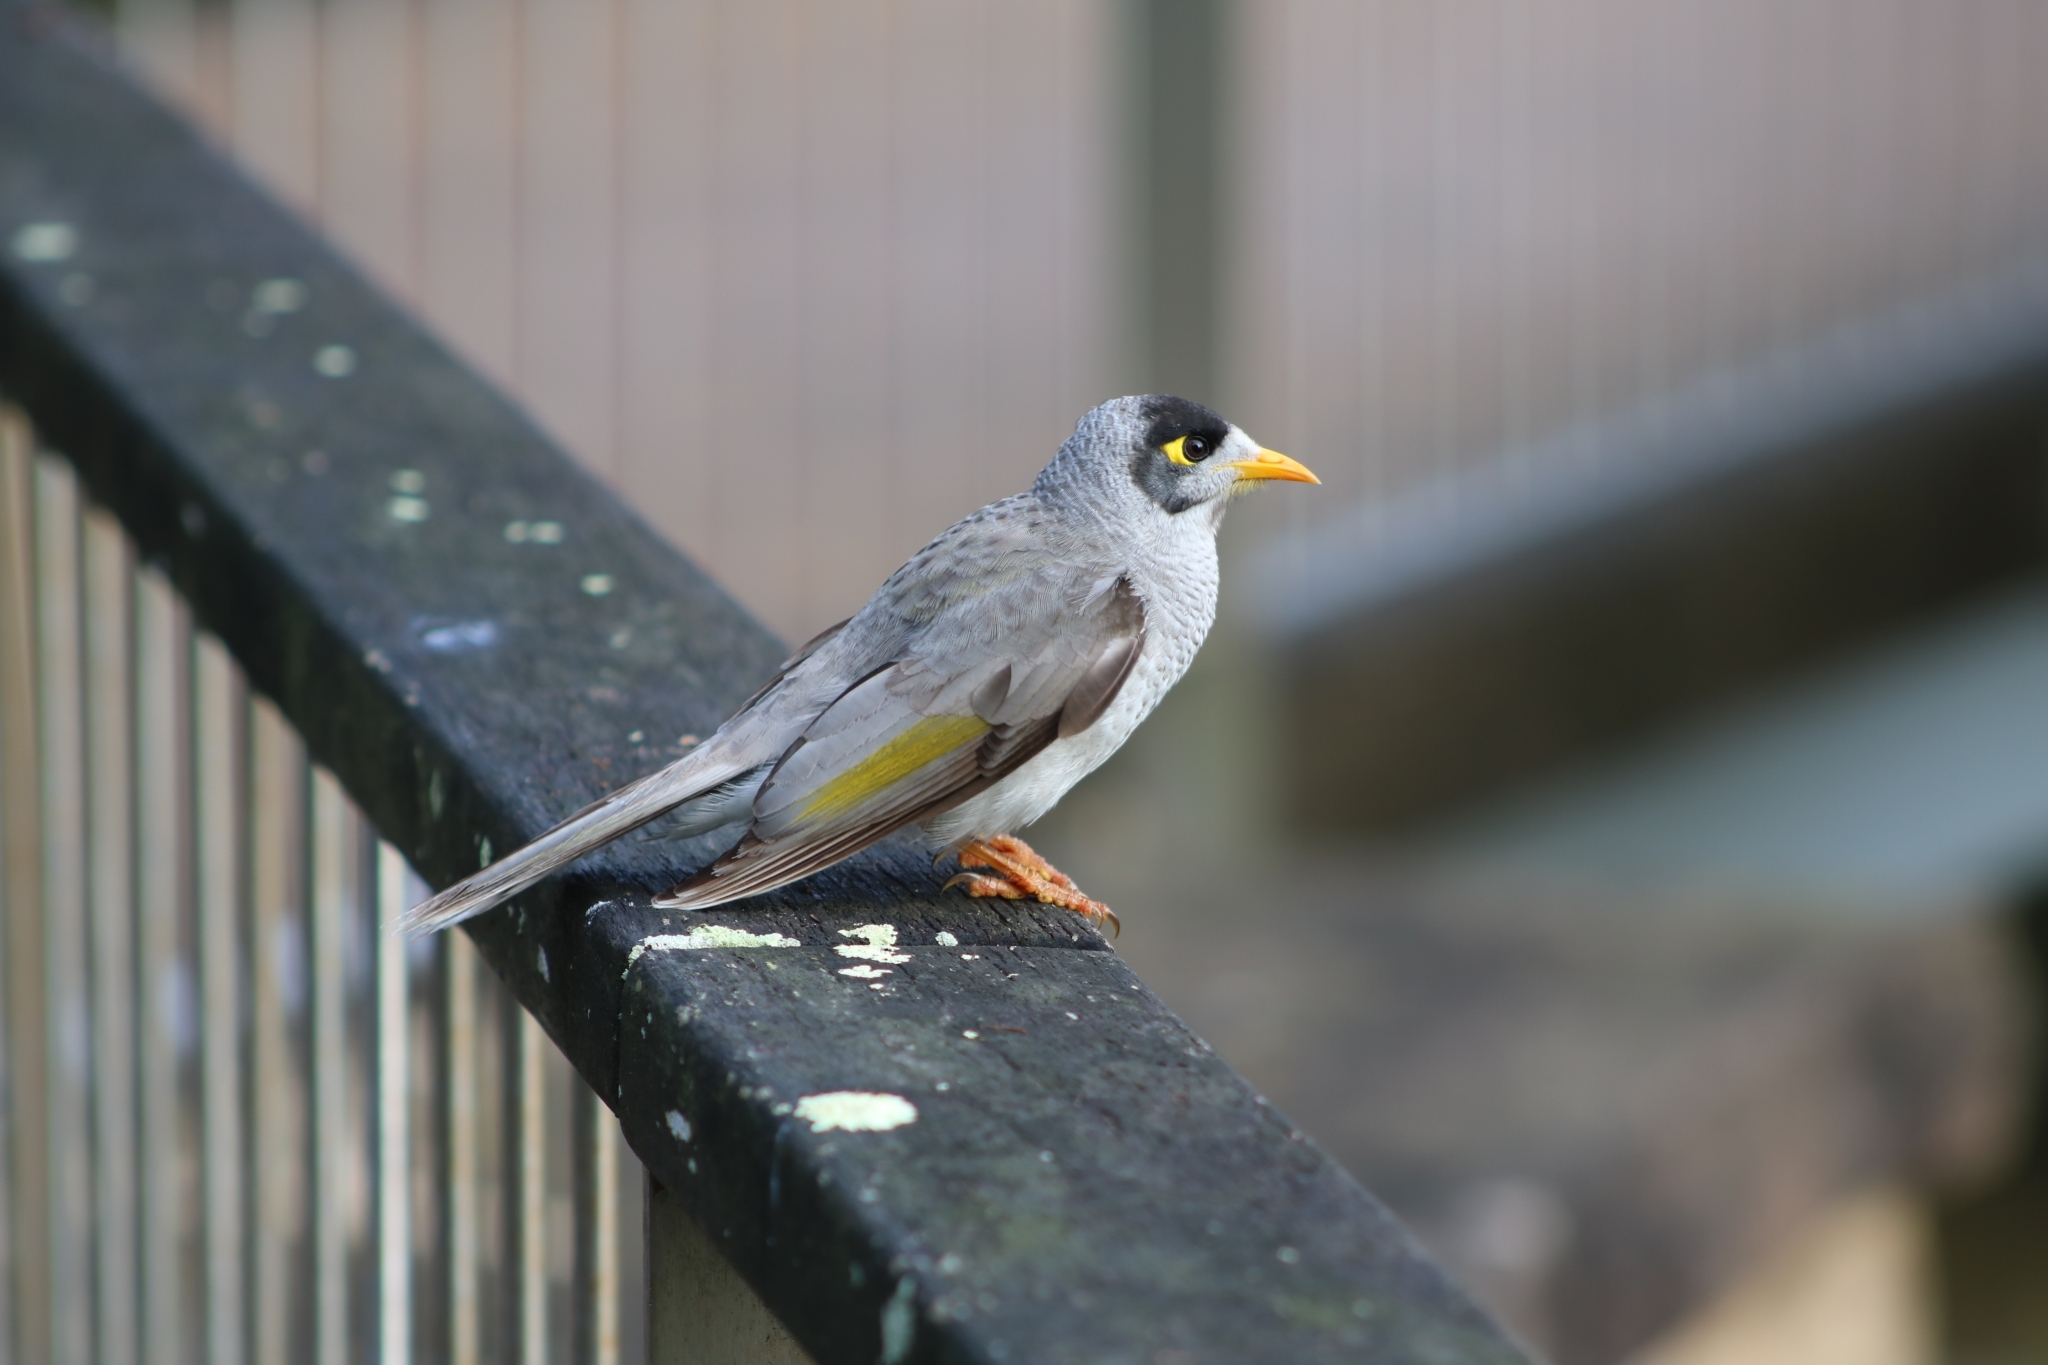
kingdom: Animalia
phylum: Chordata
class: Aves
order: Passeriformes
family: Meliphagidae
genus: Manorina
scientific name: Manorina melanocephala
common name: Noisy miner
